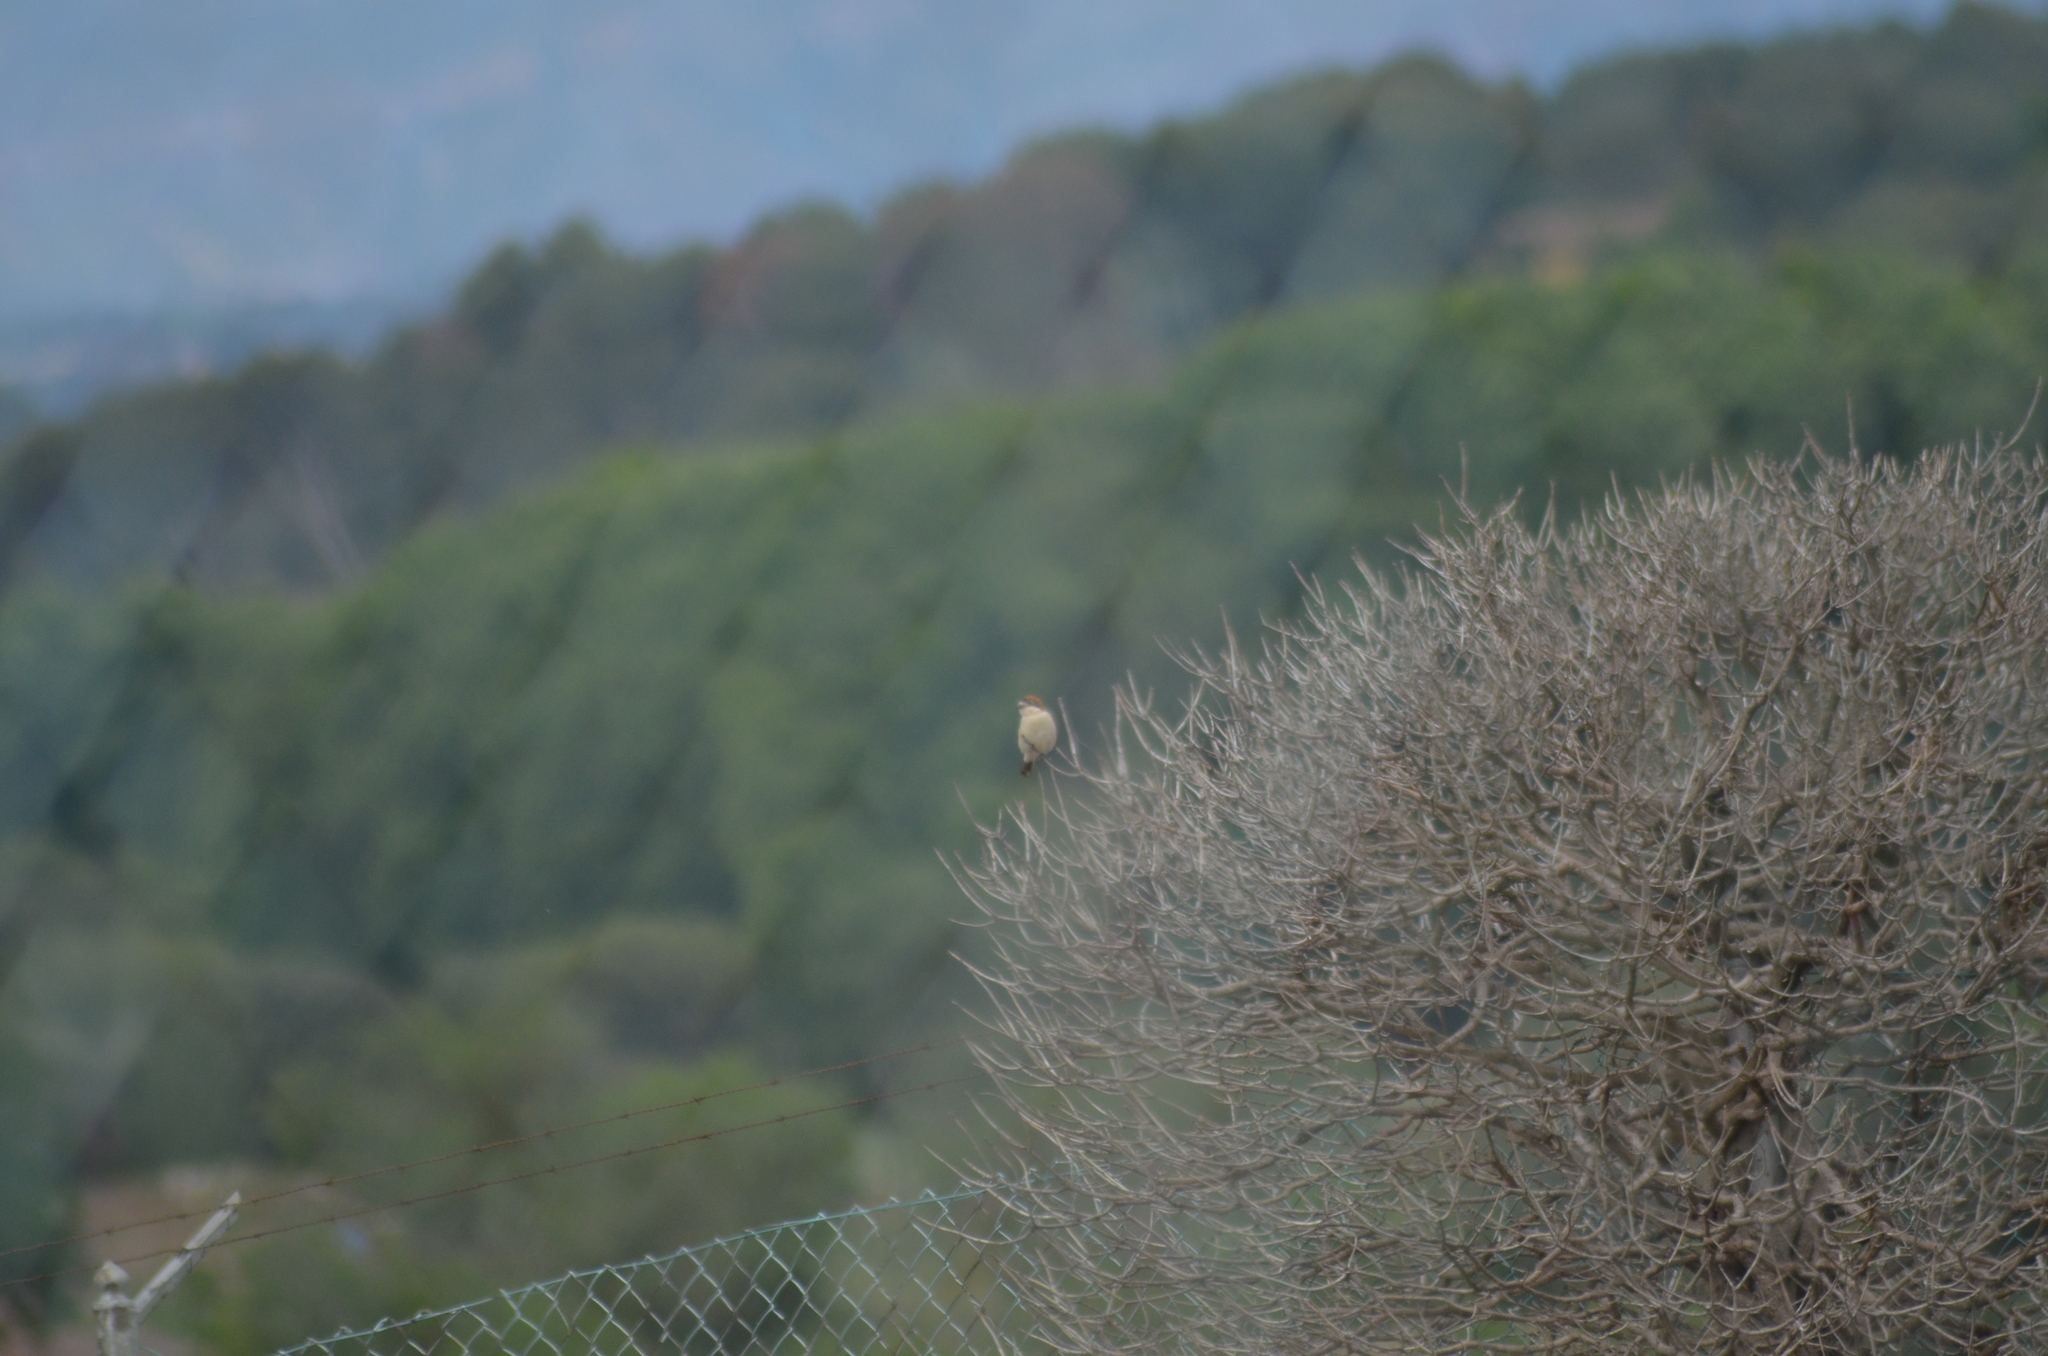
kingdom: Animalia
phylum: Chordata
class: Aves
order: Passeriformes
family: Laniidae
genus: Lanius
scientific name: Lanius senator
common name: Woodchat shrike
